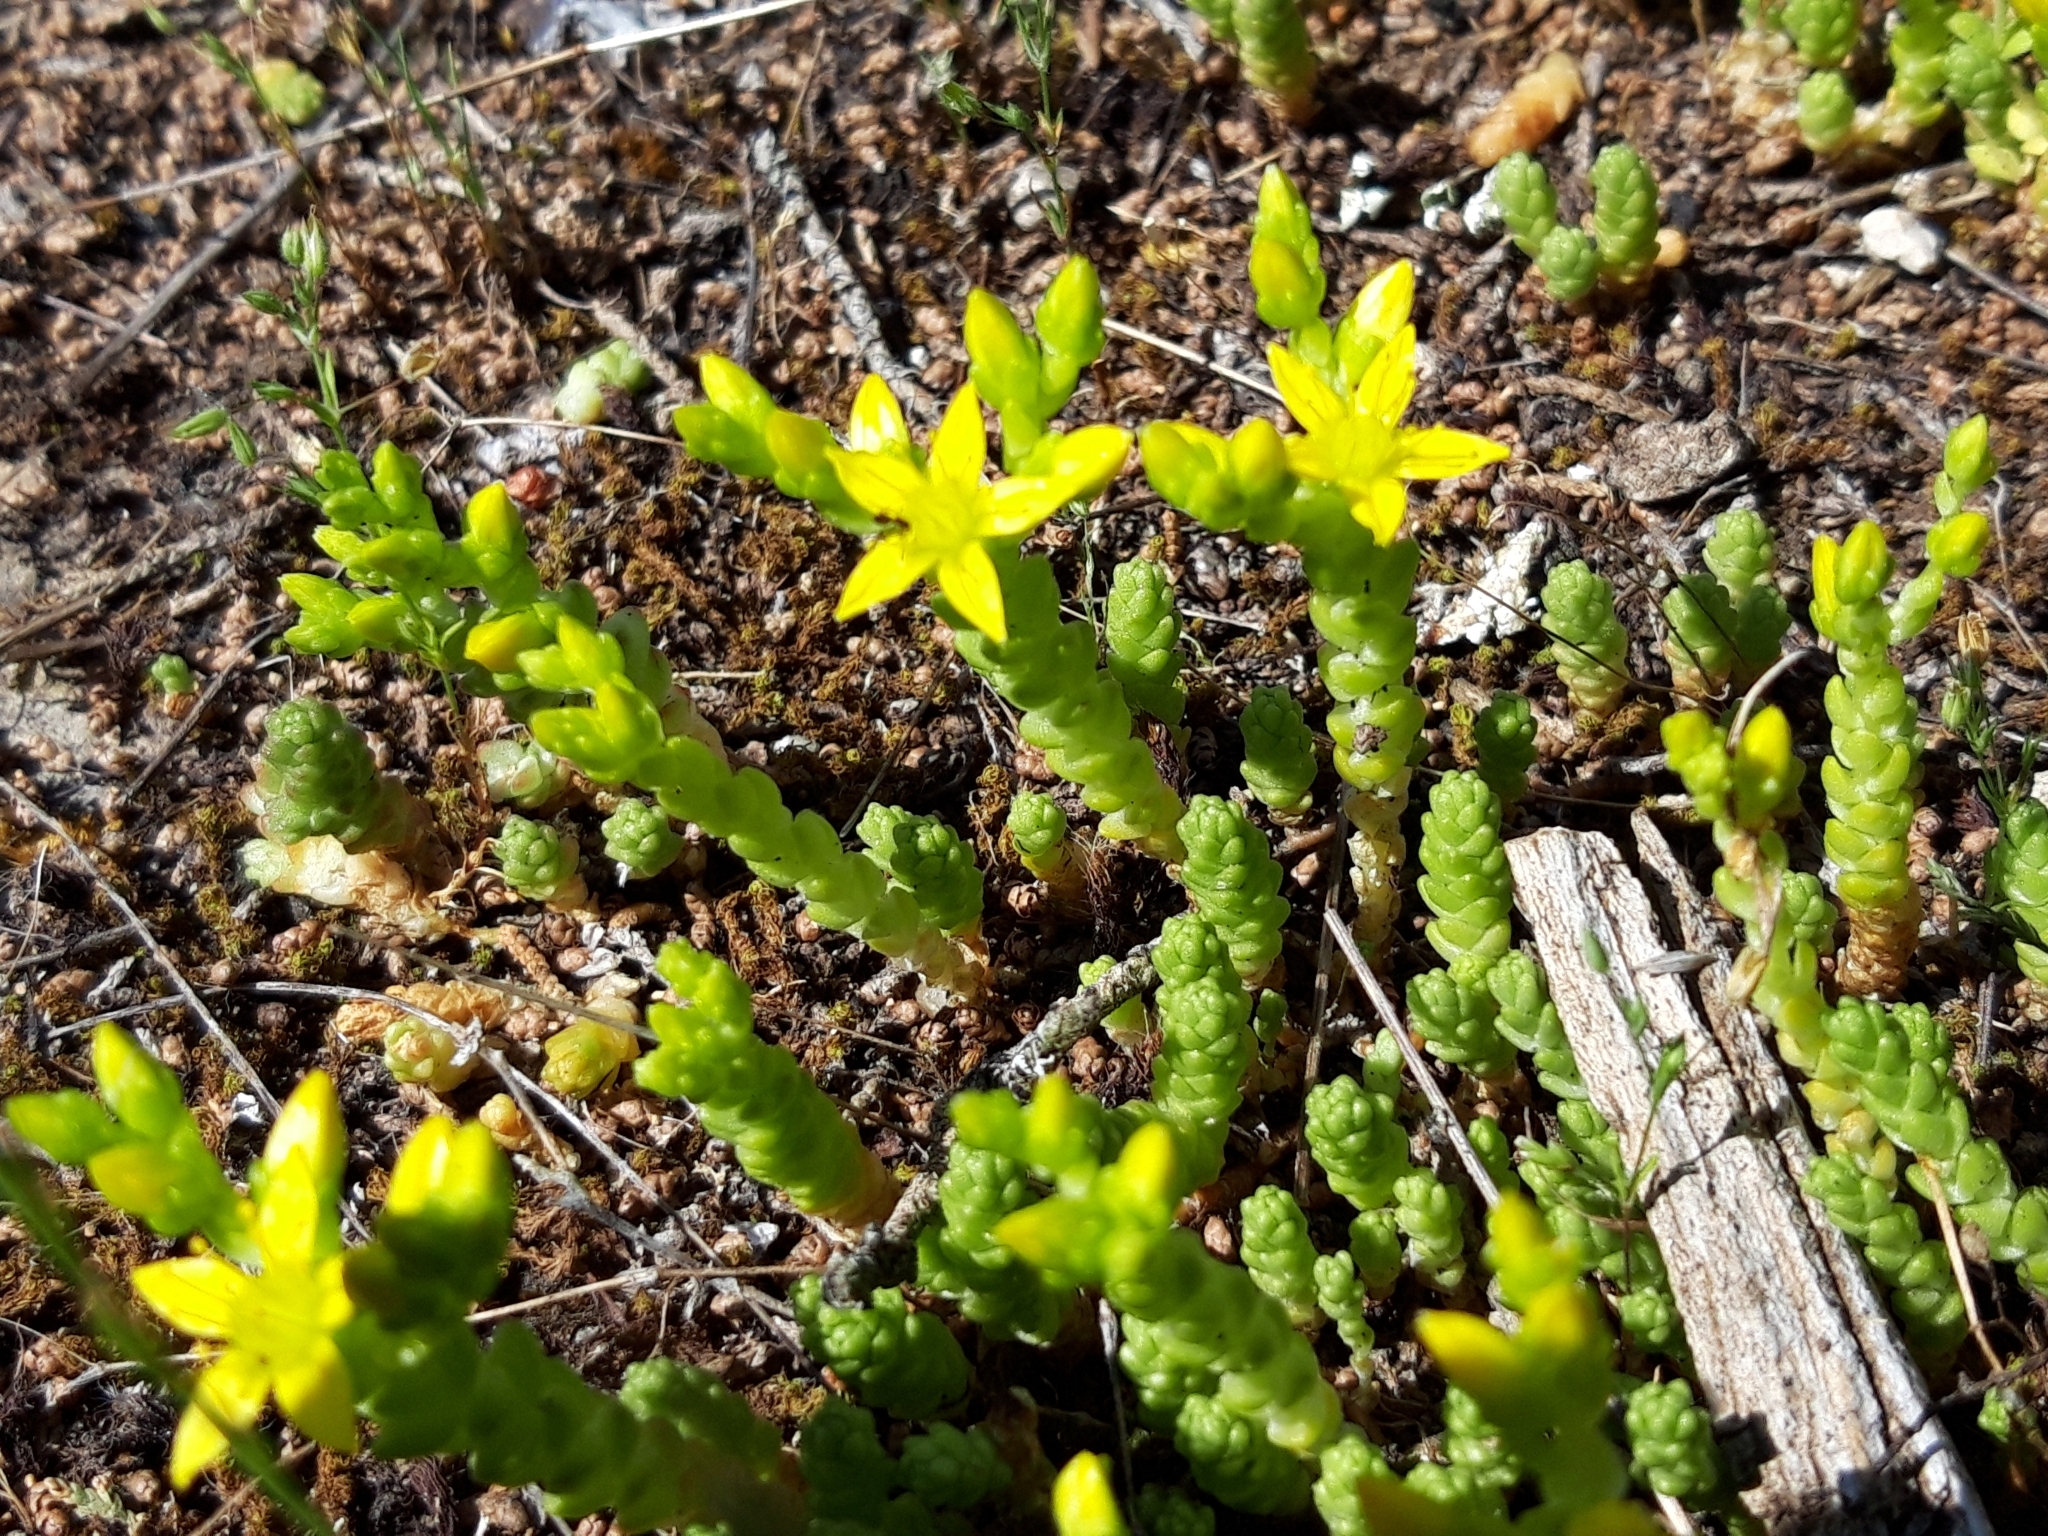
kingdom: Plantae
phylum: Tracheophyta
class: Magnoliopsida
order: Saxifragales
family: Crassulaceae
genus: Sedum
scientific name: Sedum acre
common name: Biting stonecrop
